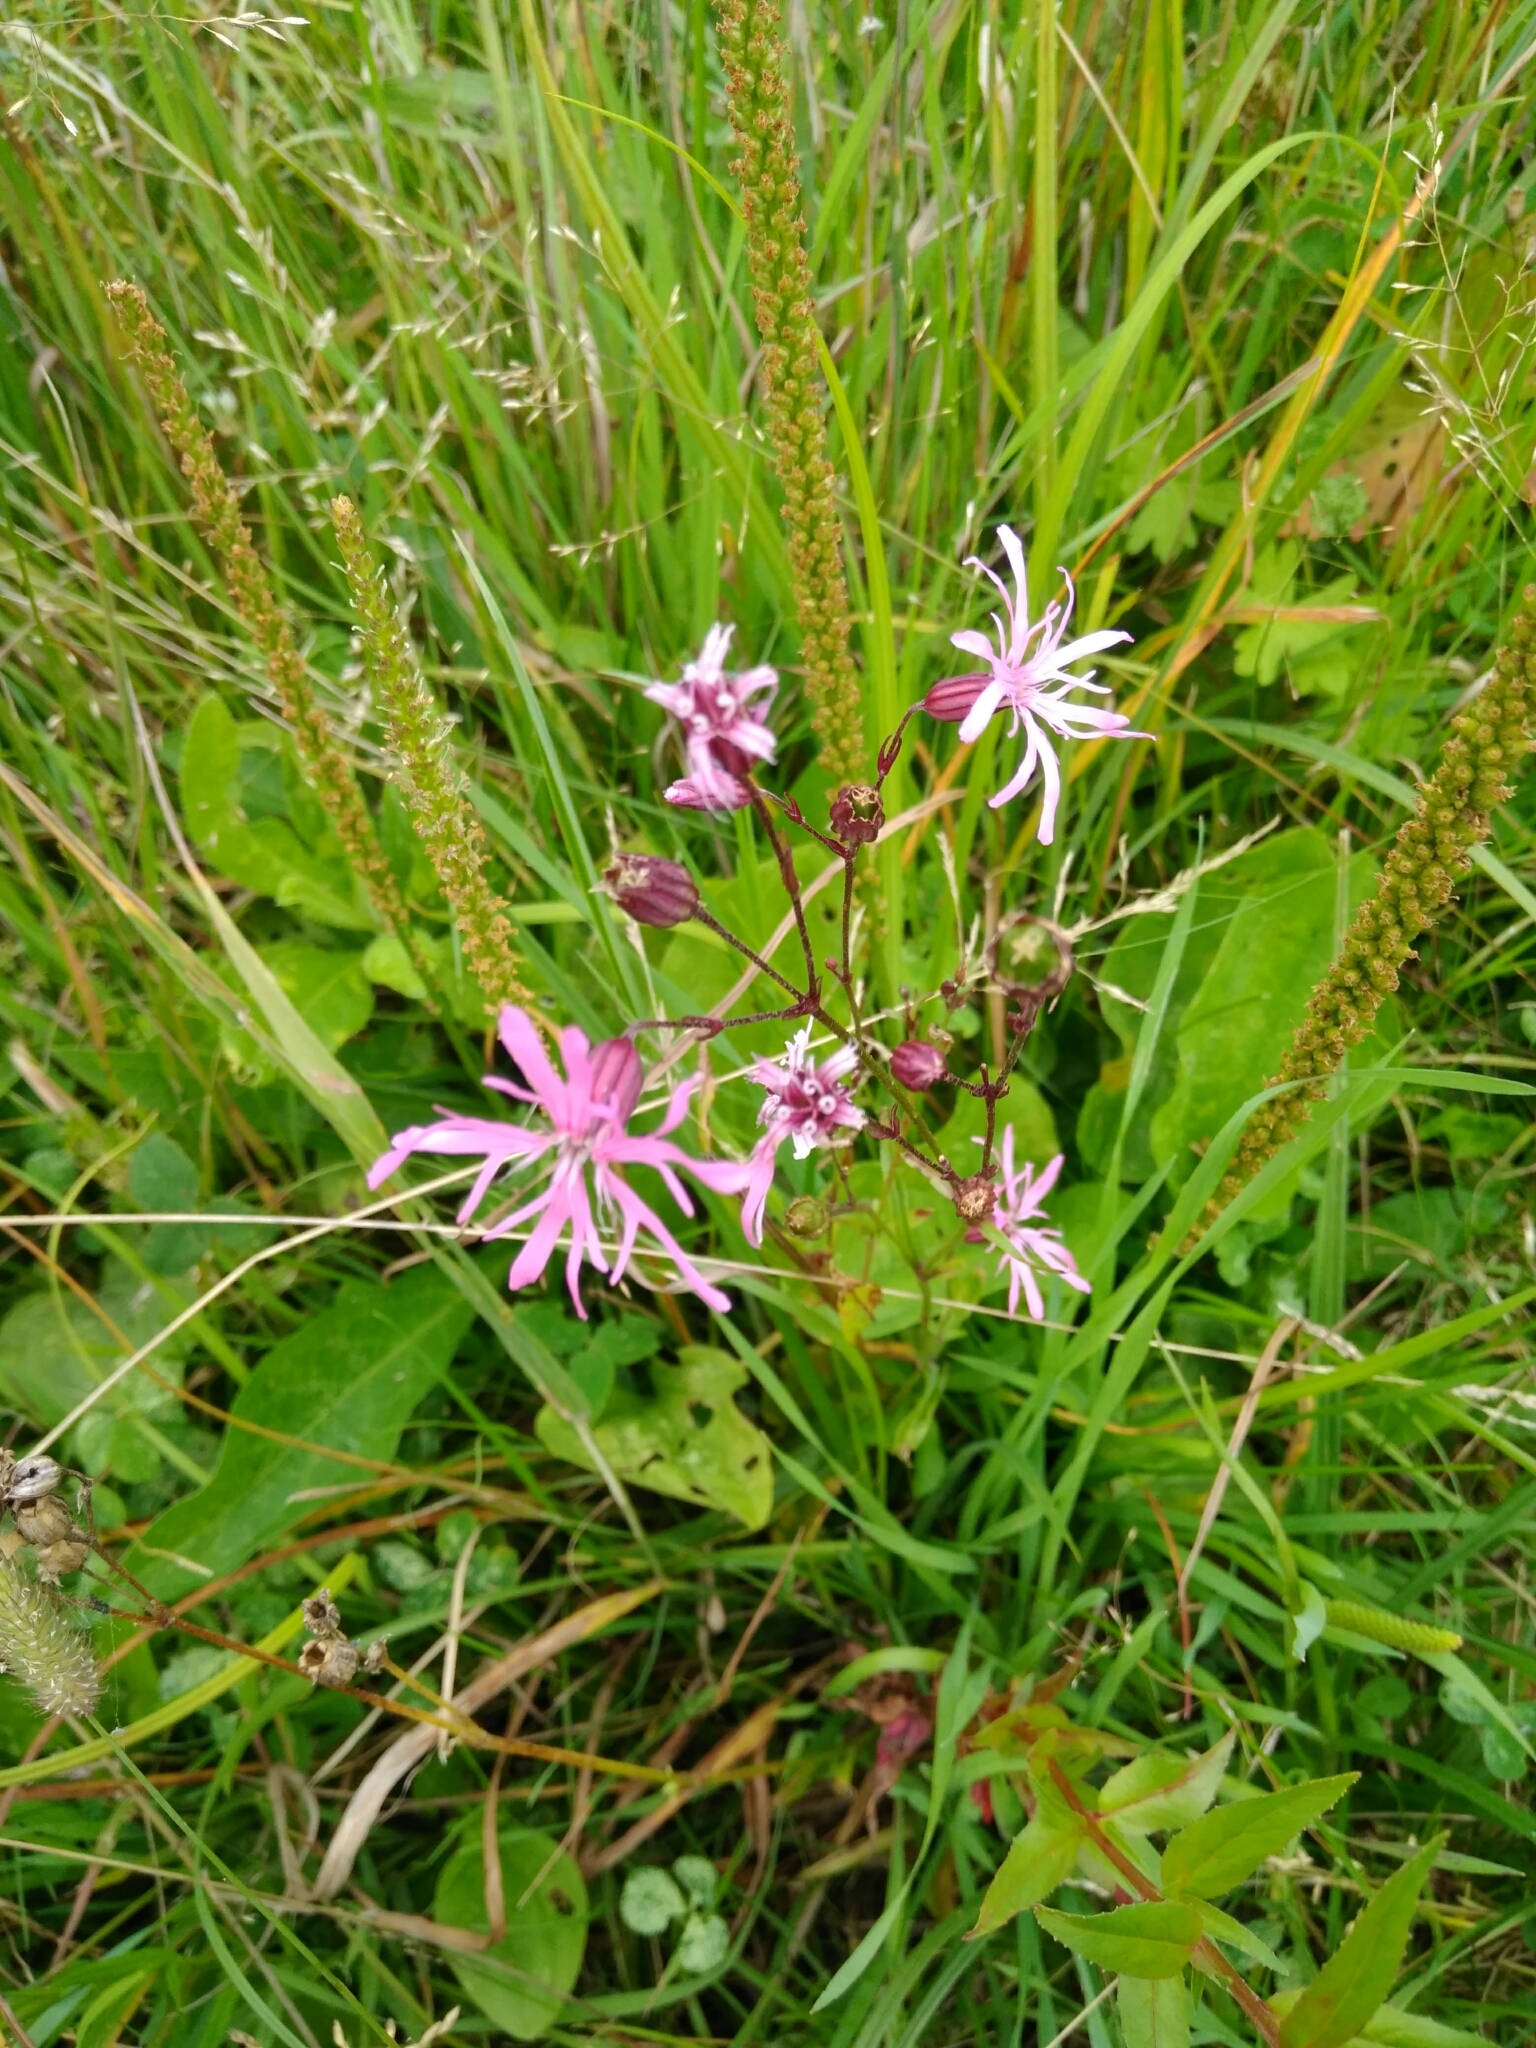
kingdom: Plantae
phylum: Tracheophyta
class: Magnoliopsida
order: Caryophyllales
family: Caryophyllaceae
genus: Silene
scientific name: Silene flos-cuculi
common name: Ragged-robin
